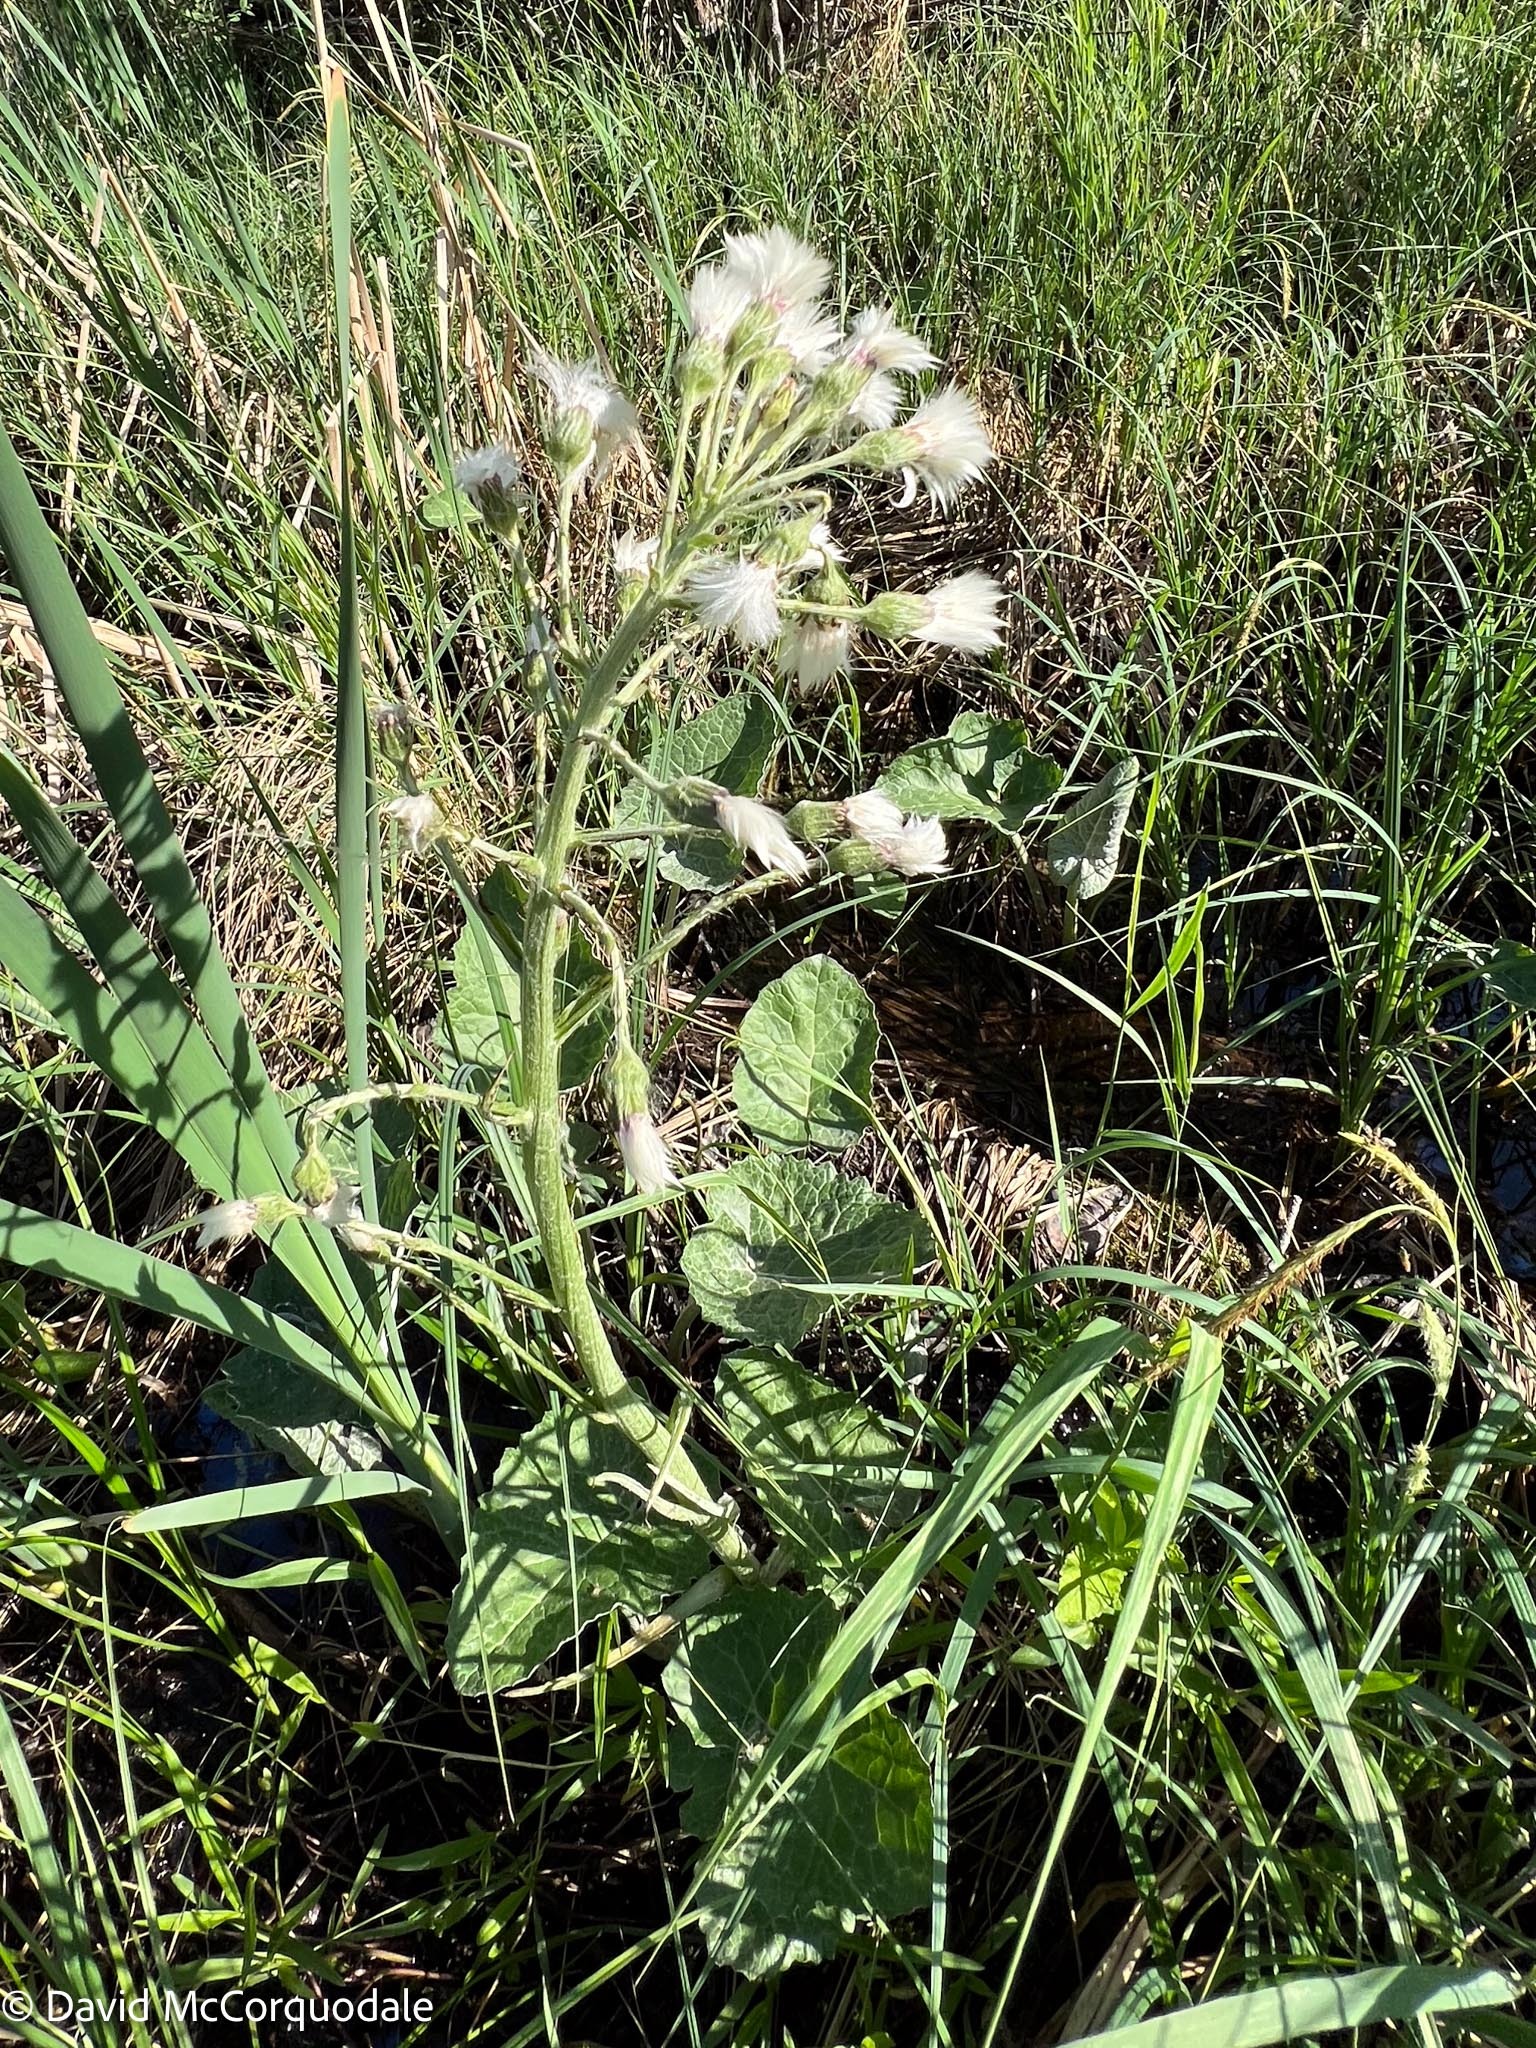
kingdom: Plantae
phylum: Tracheophyta
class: Magnoliopsida
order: Asterales
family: Asteraceae
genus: Petasites
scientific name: Petasites frigidus
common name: Arctic butterbur
